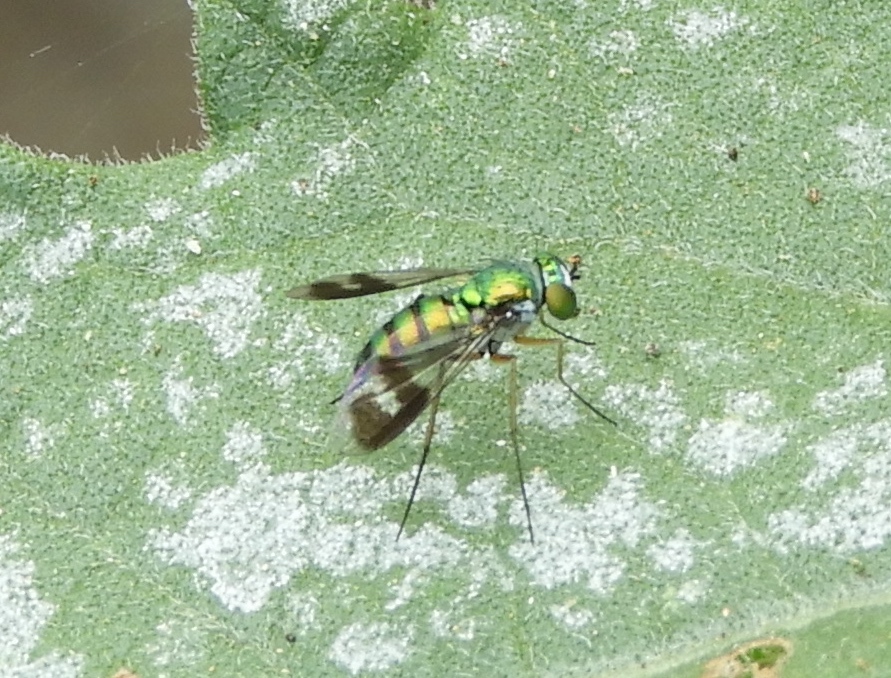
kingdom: Animalia
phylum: Arthropoda
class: Insecta
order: Diptera
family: Dolichopodidae
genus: Condylostylus
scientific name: Condylostylus
